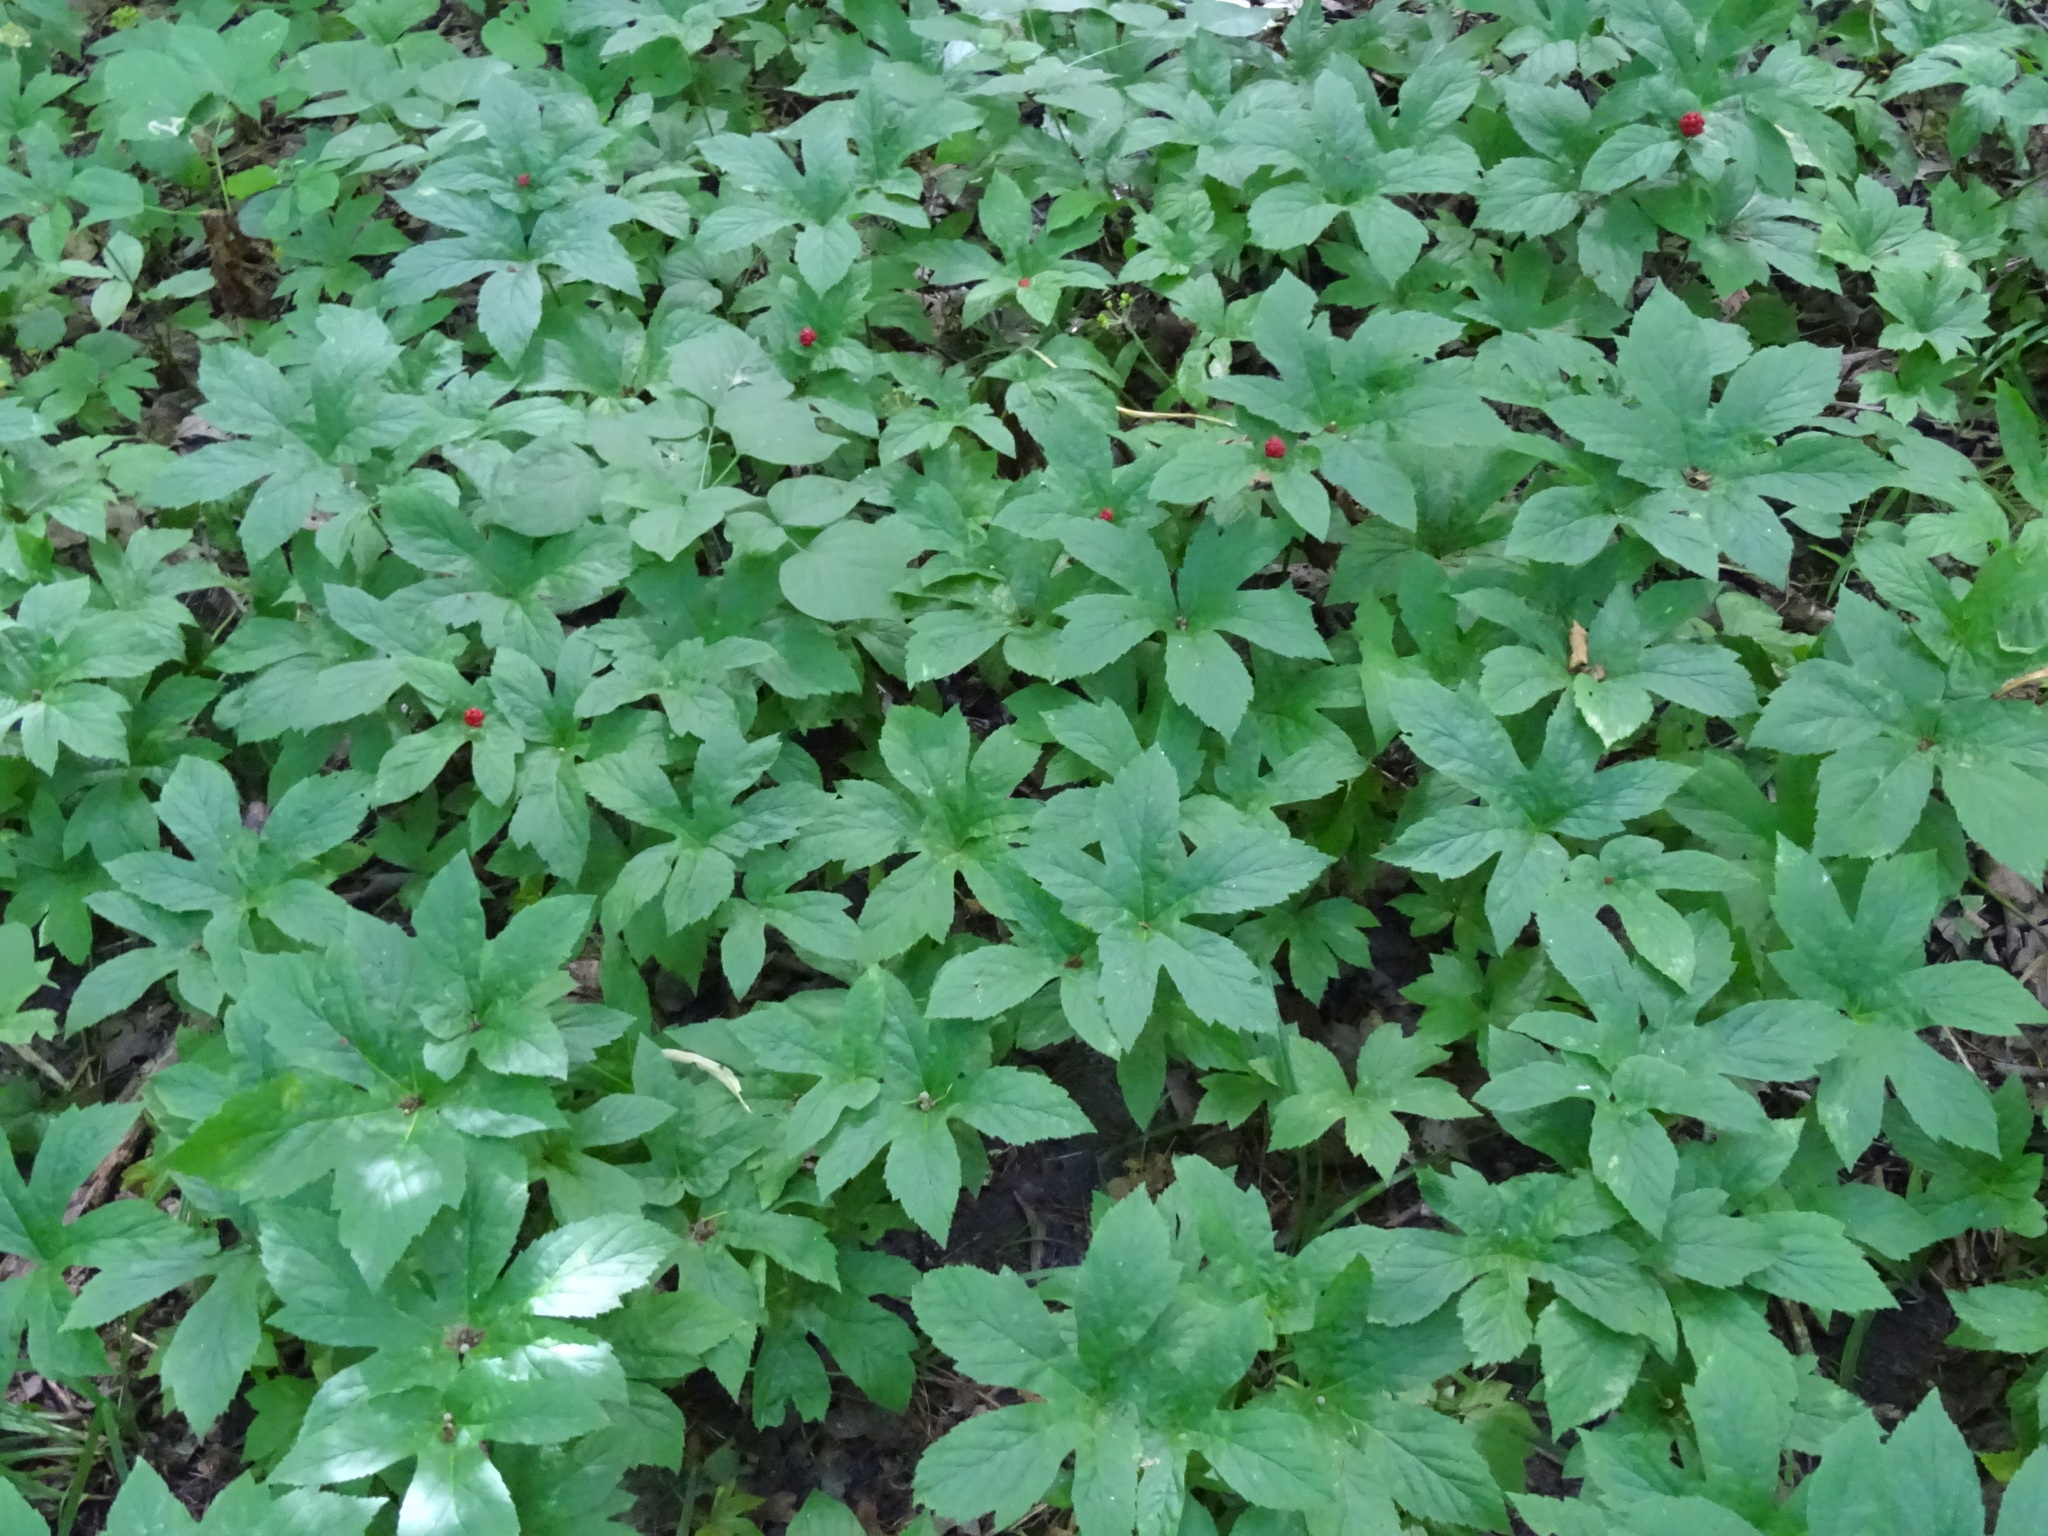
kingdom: Plantae
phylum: Tracheophyta
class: Magnoliopsida
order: Ranunculales
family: Ranunculaceae
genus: Hydrastis
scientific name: Hydrastis canadensis
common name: Goldenseal
